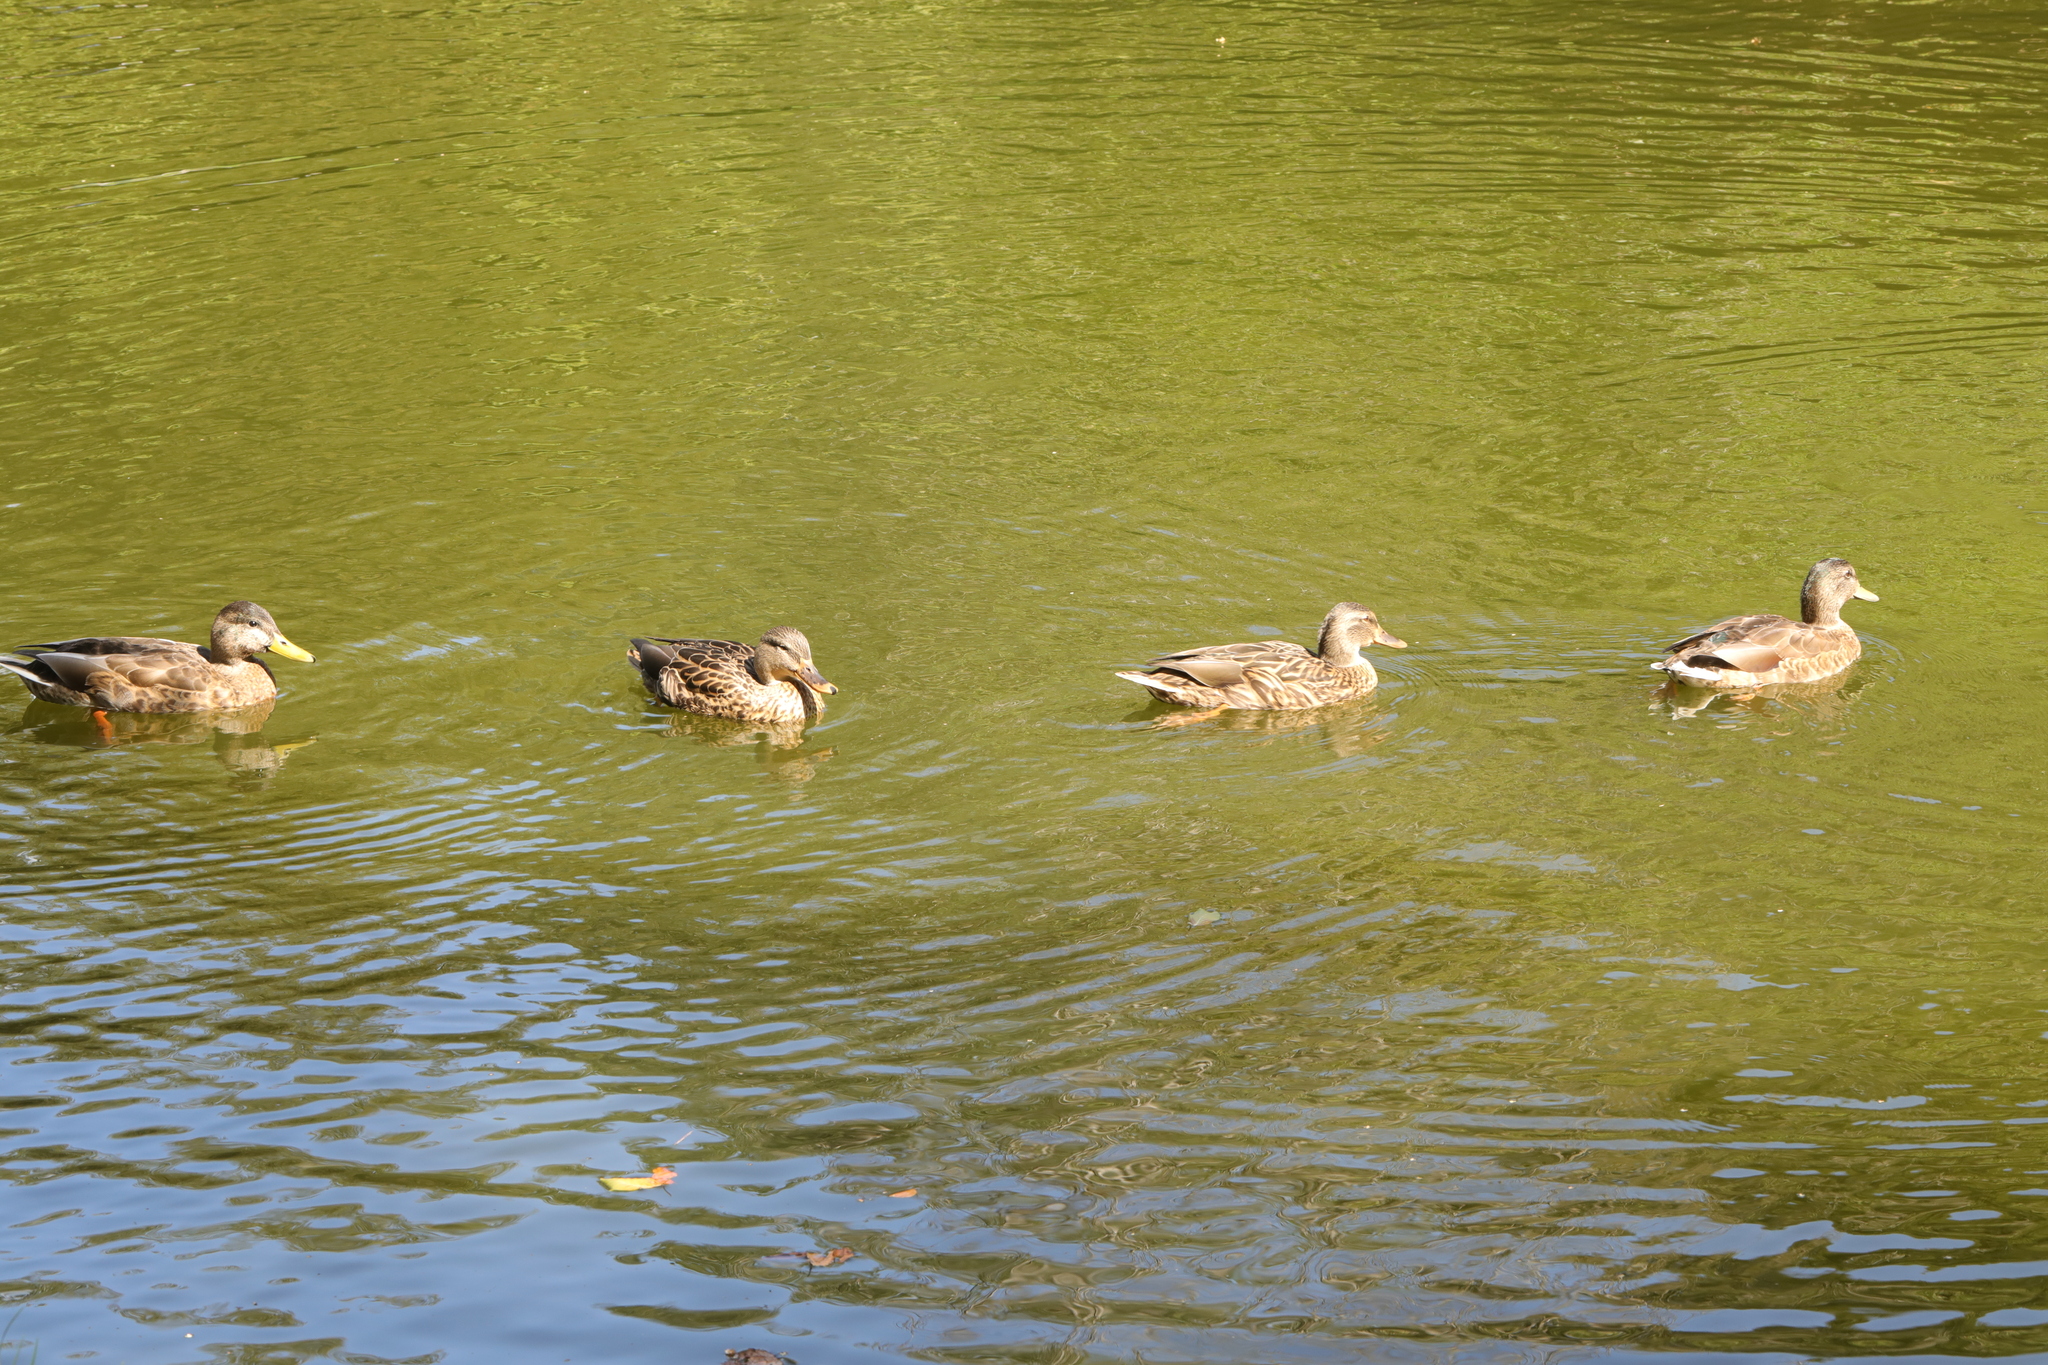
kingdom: Animalia
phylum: Chordata
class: Aves
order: Anseriformes
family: Anatidae
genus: Anas
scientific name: Anas platyrhynchos
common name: Mallard
